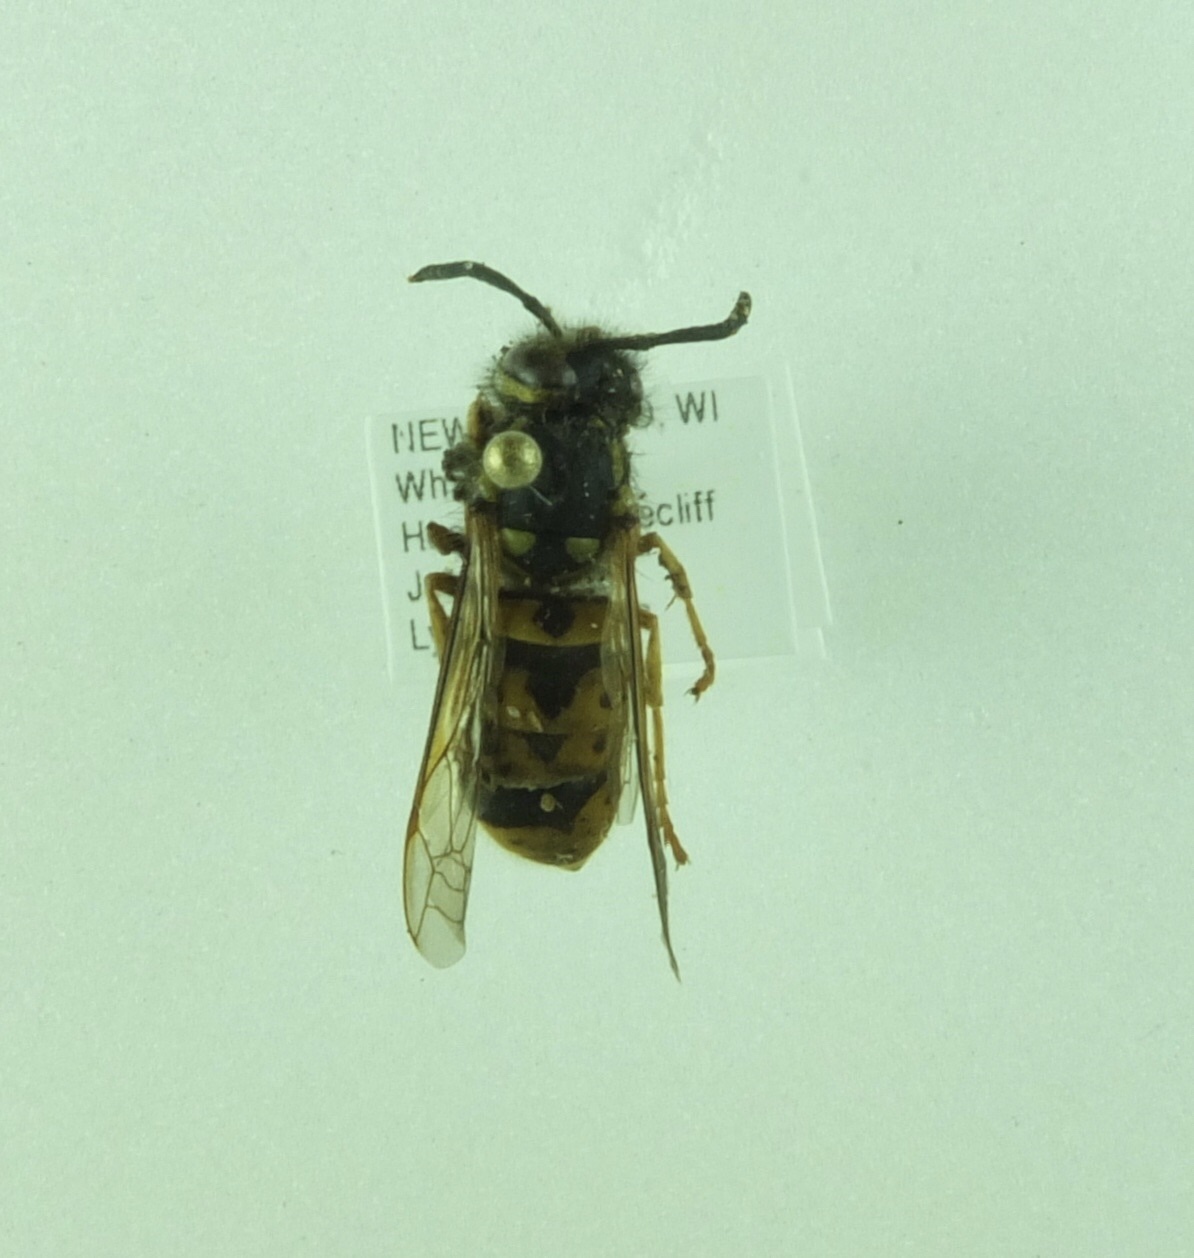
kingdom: Animalia
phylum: Arthropoda
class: Insecta
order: Hymenoptera
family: Vespidae
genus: Vespula
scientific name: Vespula germanica
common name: German wasp
